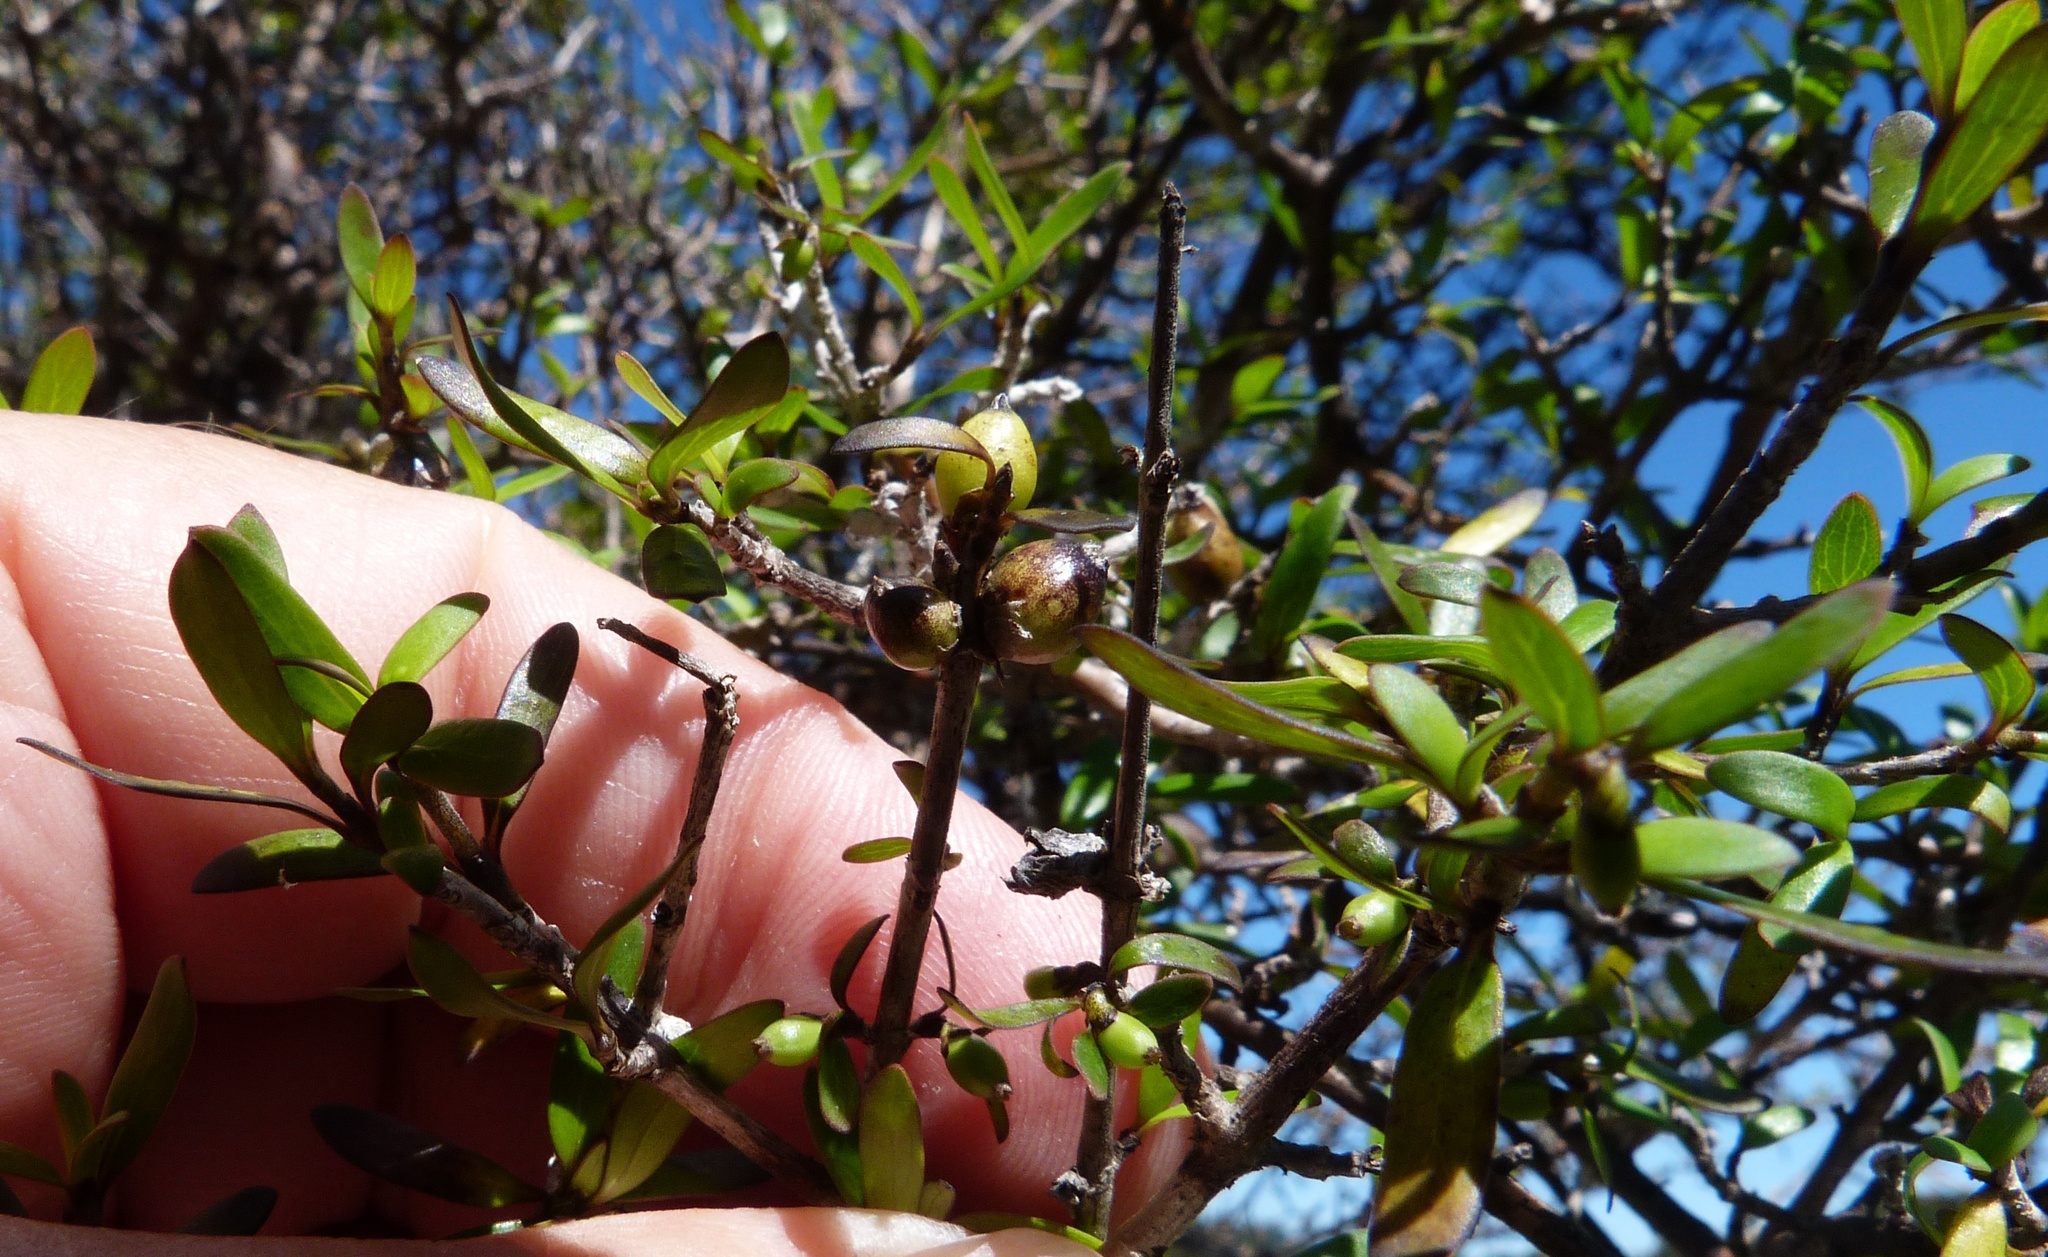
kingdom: Plantae
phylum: Tracheophyta
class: Magnoliopsida
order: Gentianales
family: Rubiaceae
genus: Coprosma
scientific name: Coprosma propinqua
